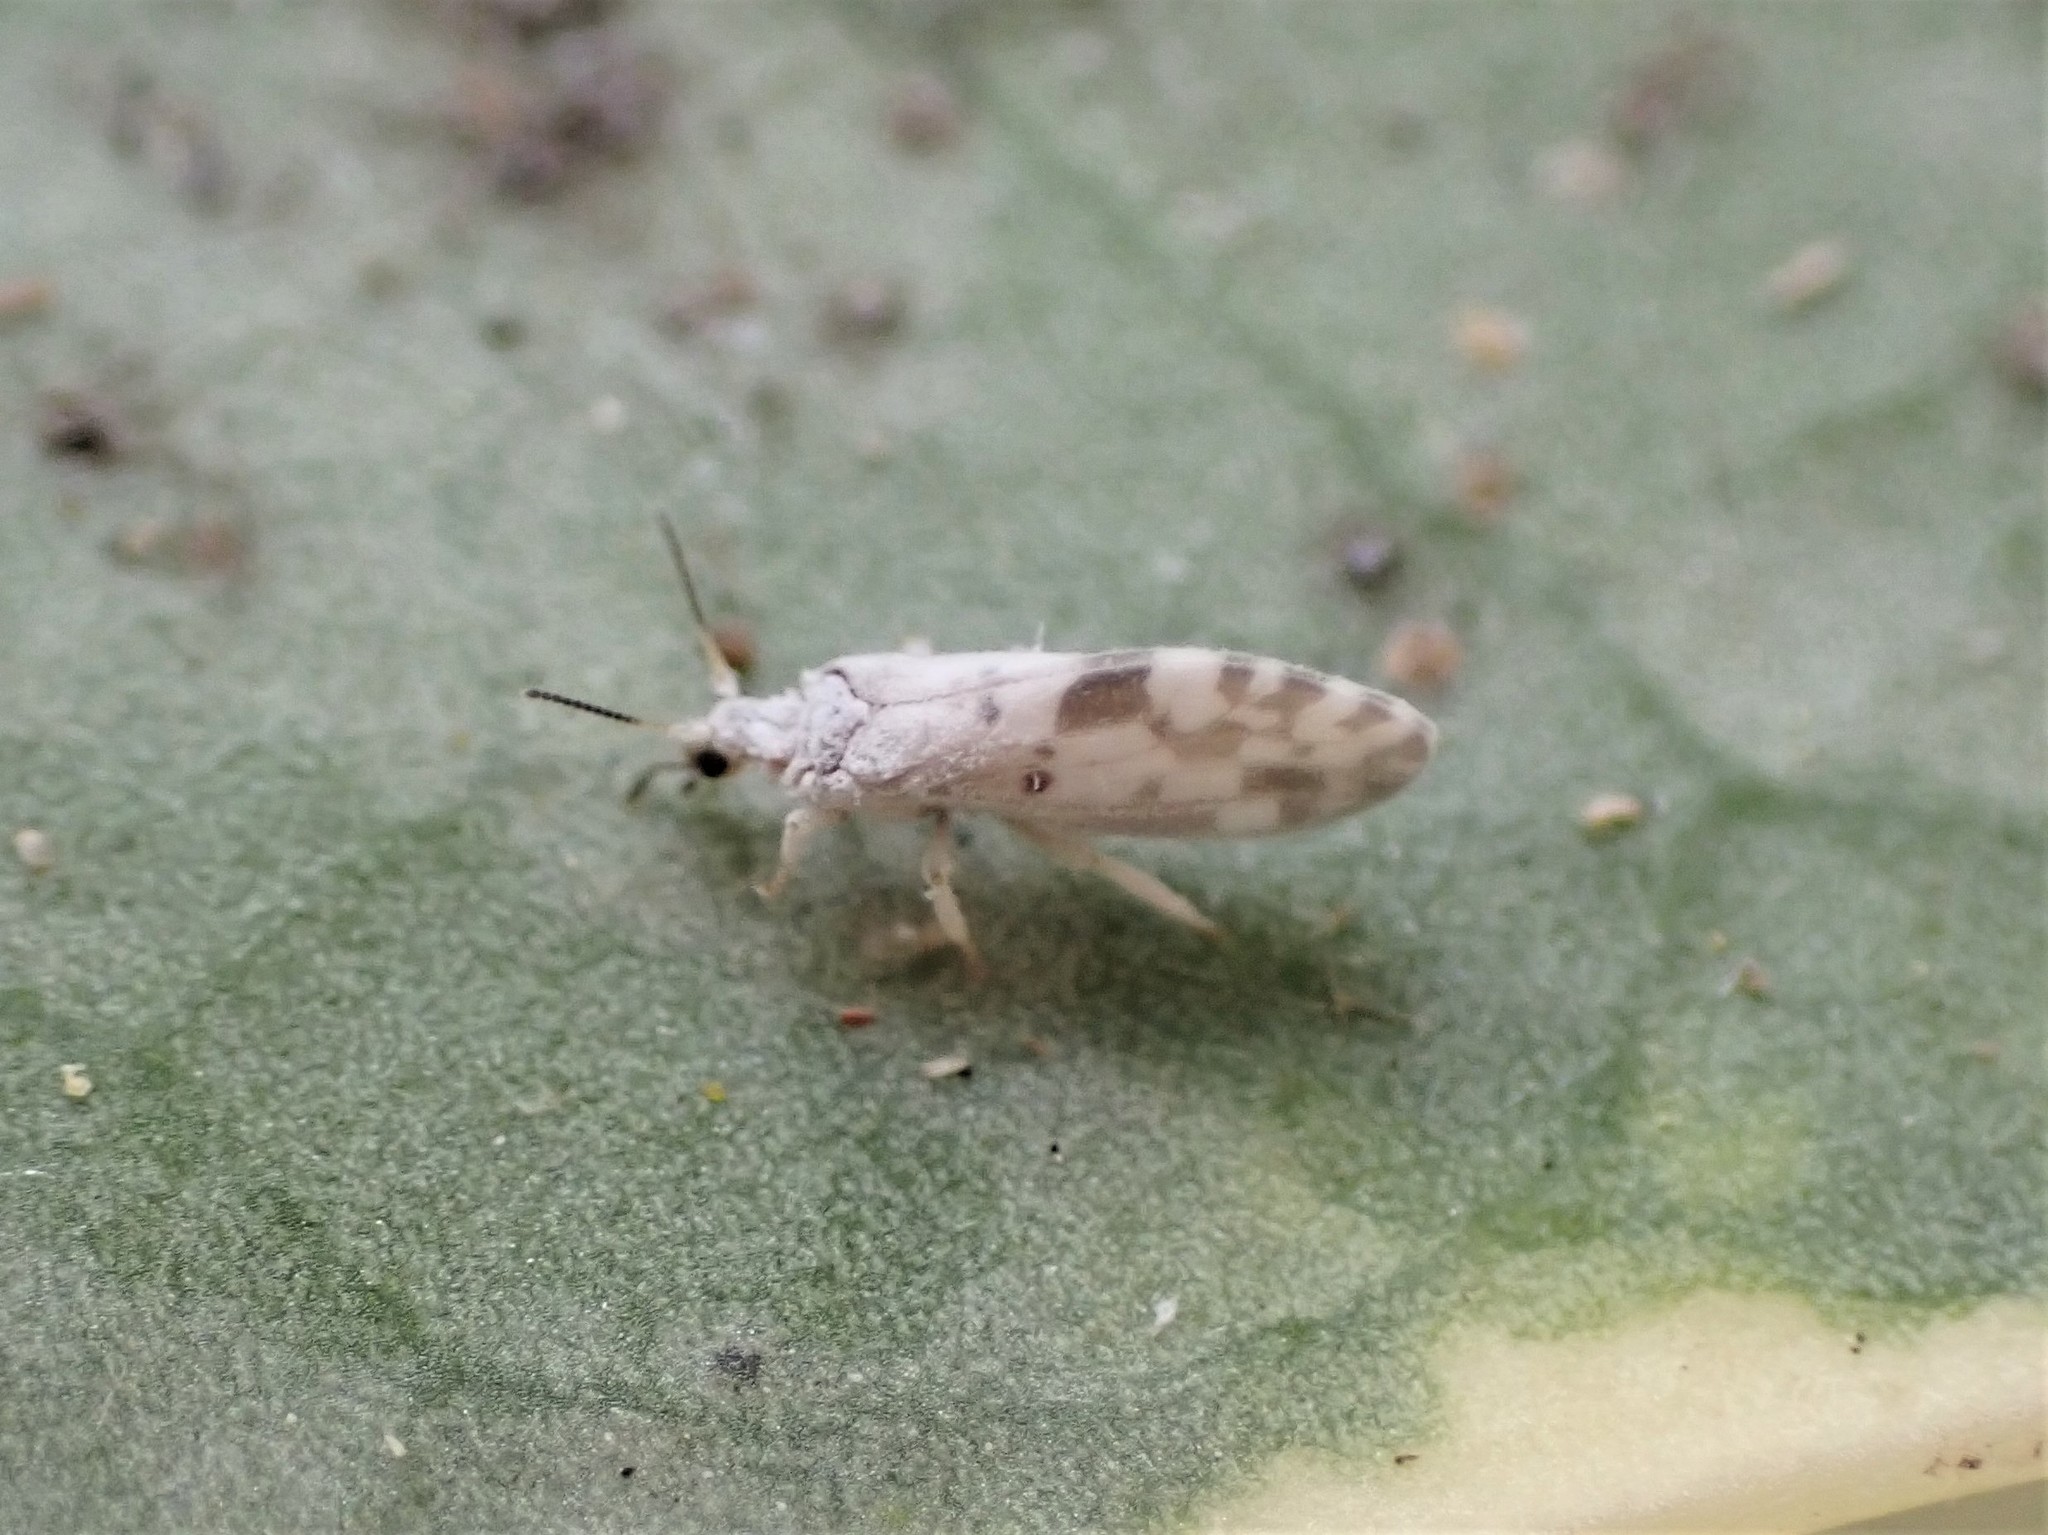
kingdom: Animalia
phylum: Arthropoda
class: Insecta
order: Neuroptera
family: Coniopterygidae
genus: Heteroconis
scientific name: Heteroconis ornata
